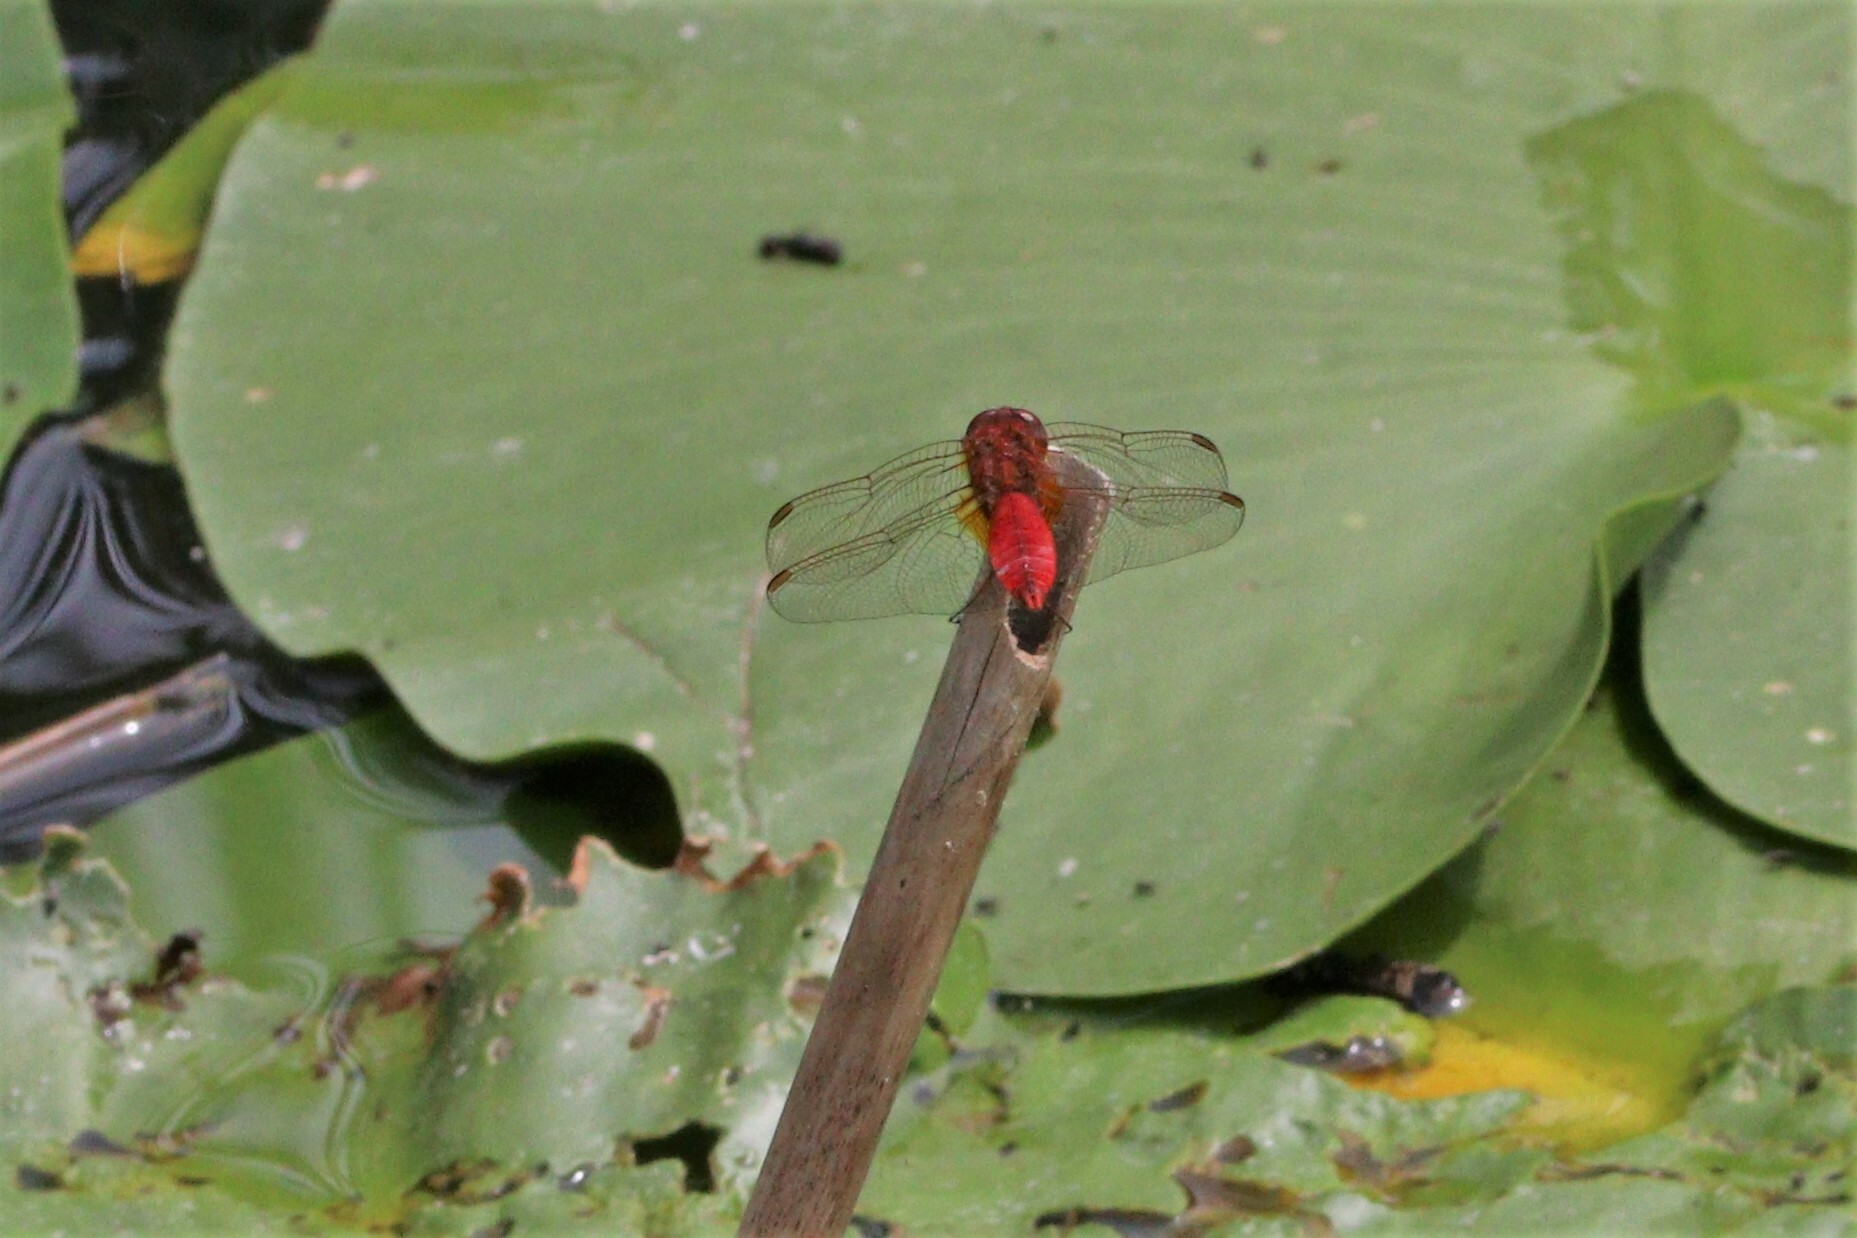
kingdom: Animalia
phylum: Arthropoda
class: Insecta
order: Odonata
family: Libellulidae
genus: Crocothemis
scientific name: Crocothemis erythraea
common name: Scarlet dragonfly
